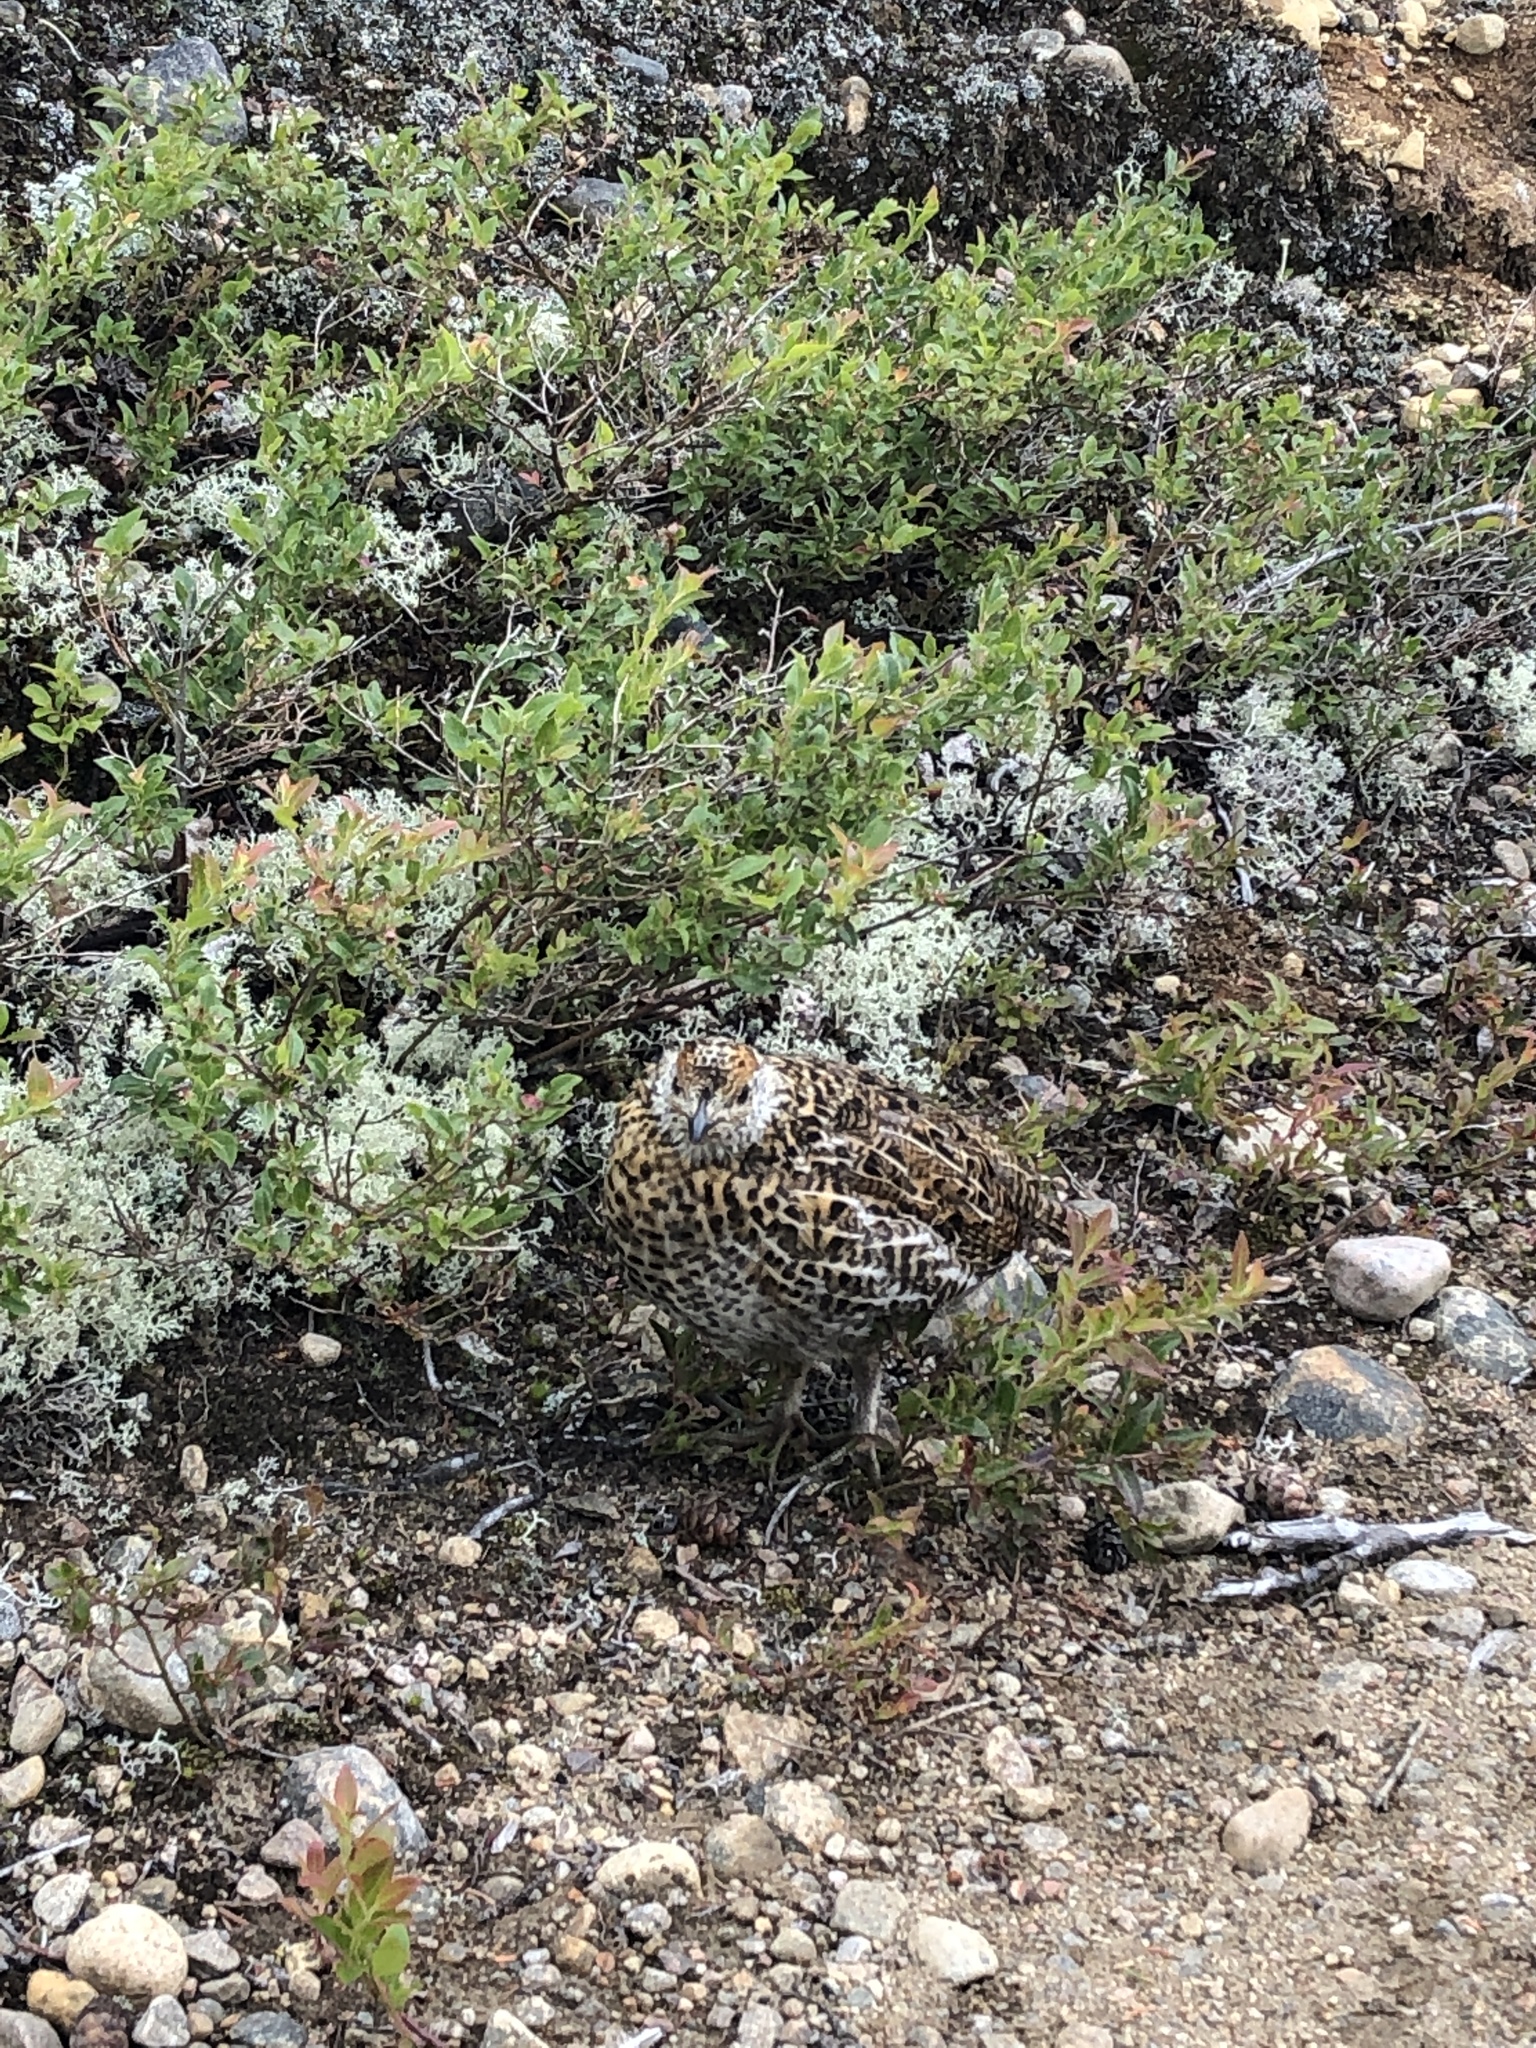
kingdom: Animalia
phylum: Chordata
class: Aves
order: Galliformes
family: Phasianidae
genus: Canachites
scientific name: Canachites canadensis
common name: Spruce grouse
